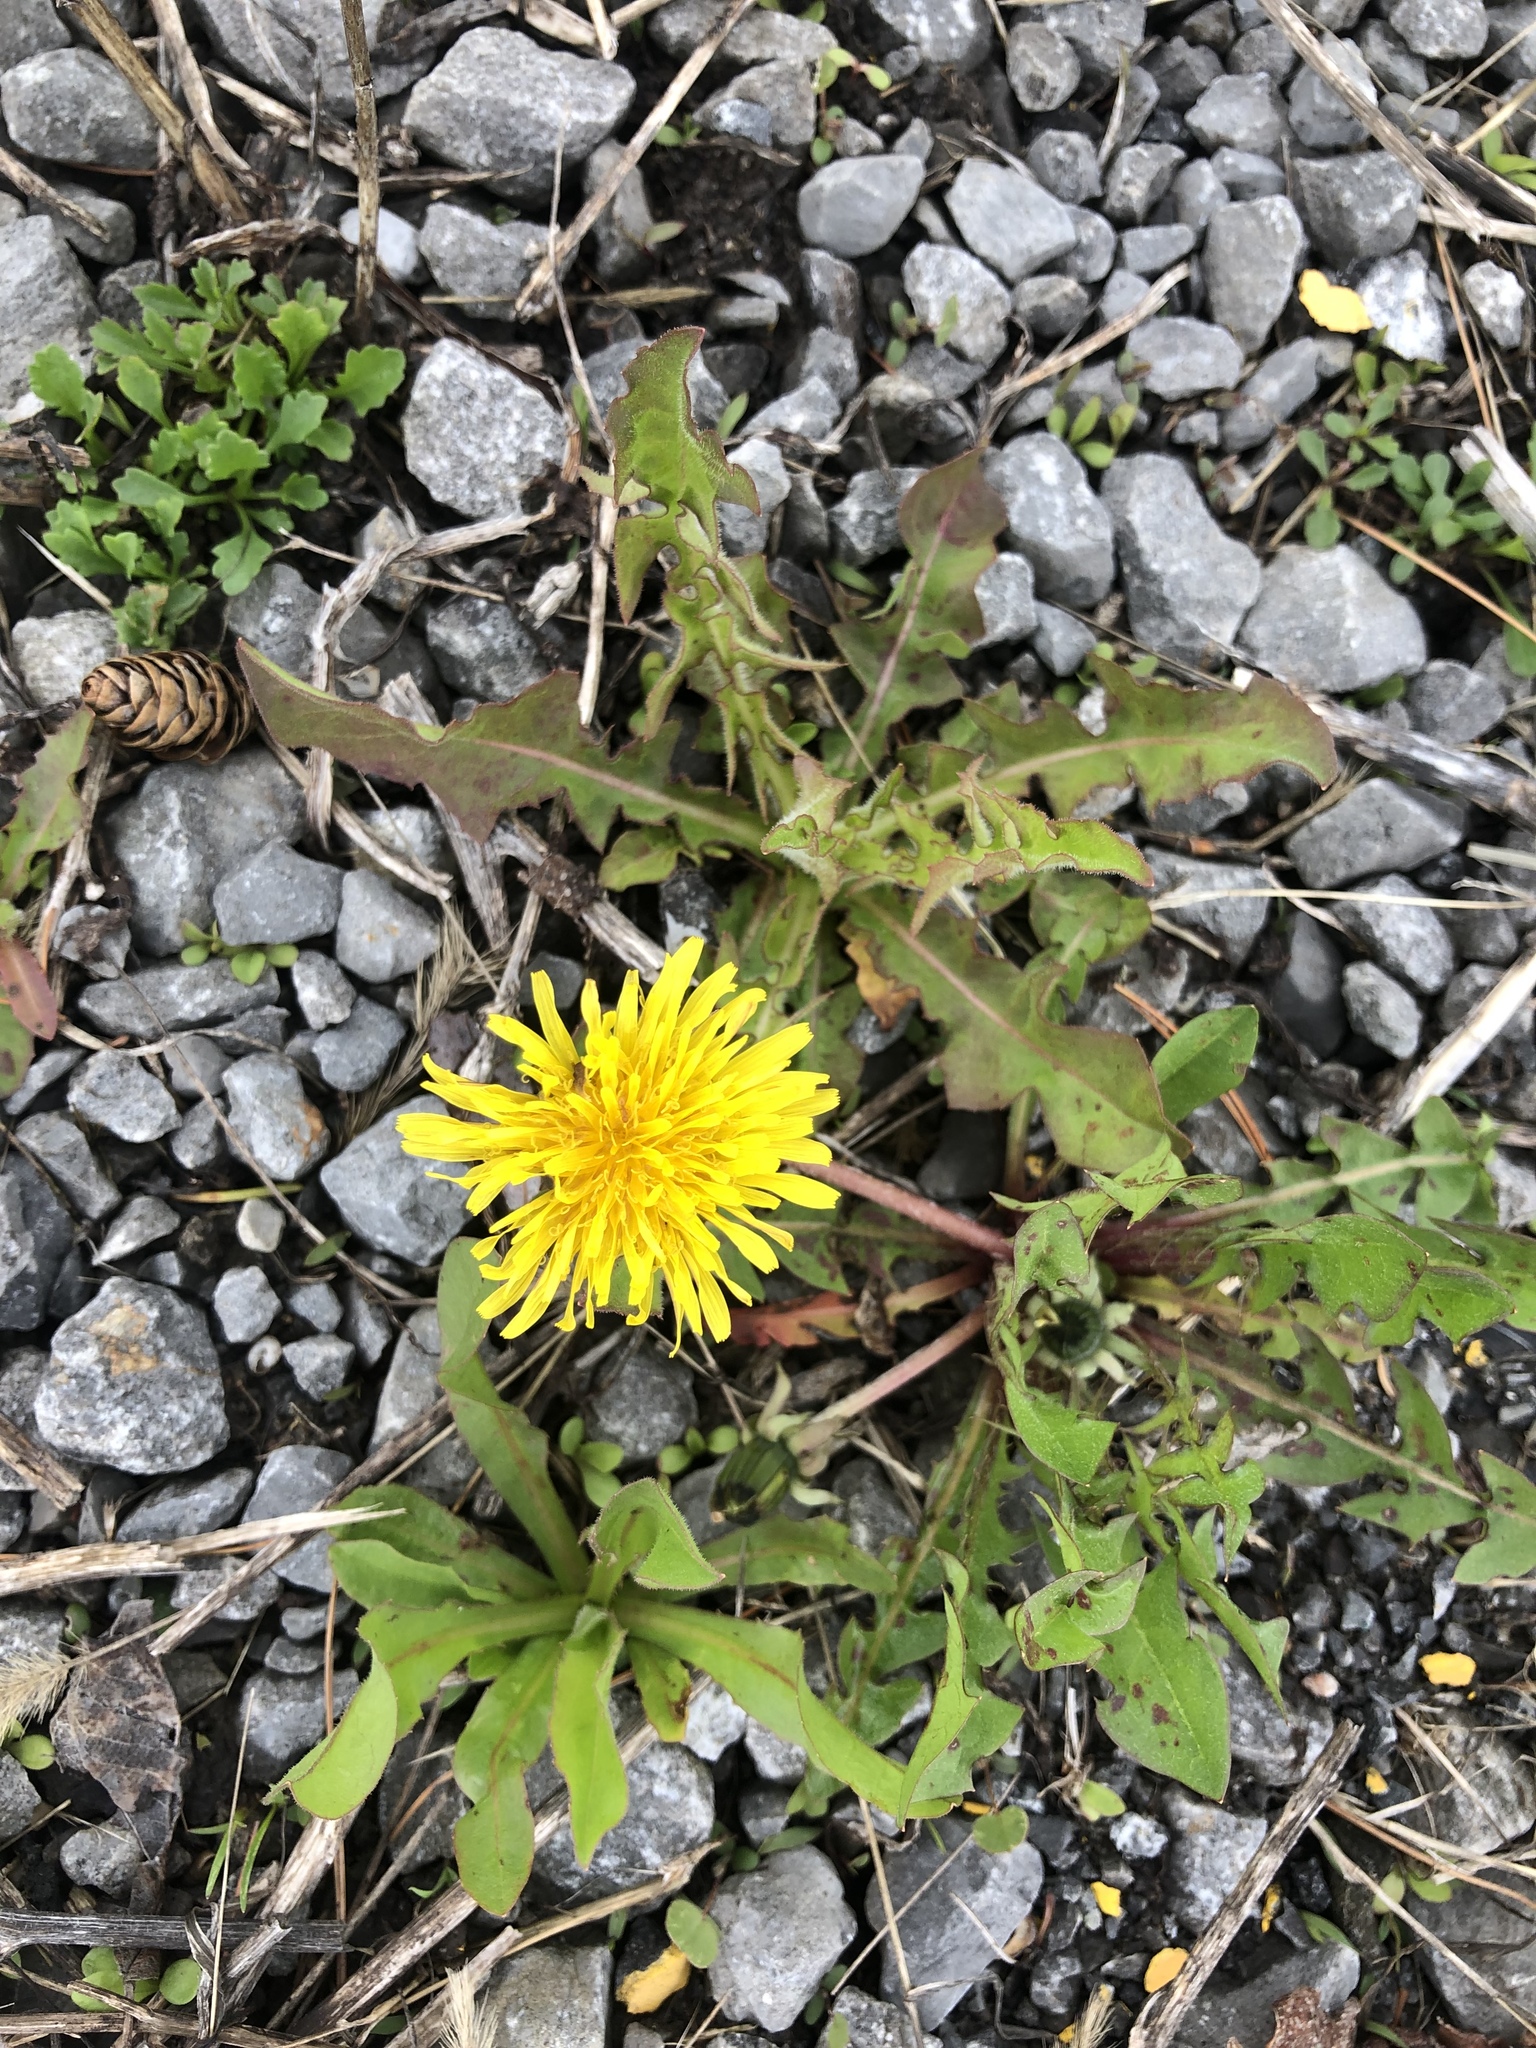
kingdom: Plantae
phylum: Tracheophyta
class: Magnoliopsida
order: Asterales
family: Asteraceae
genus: Taraxacum
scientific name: Taraxacum officinale
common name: Common dandelion
